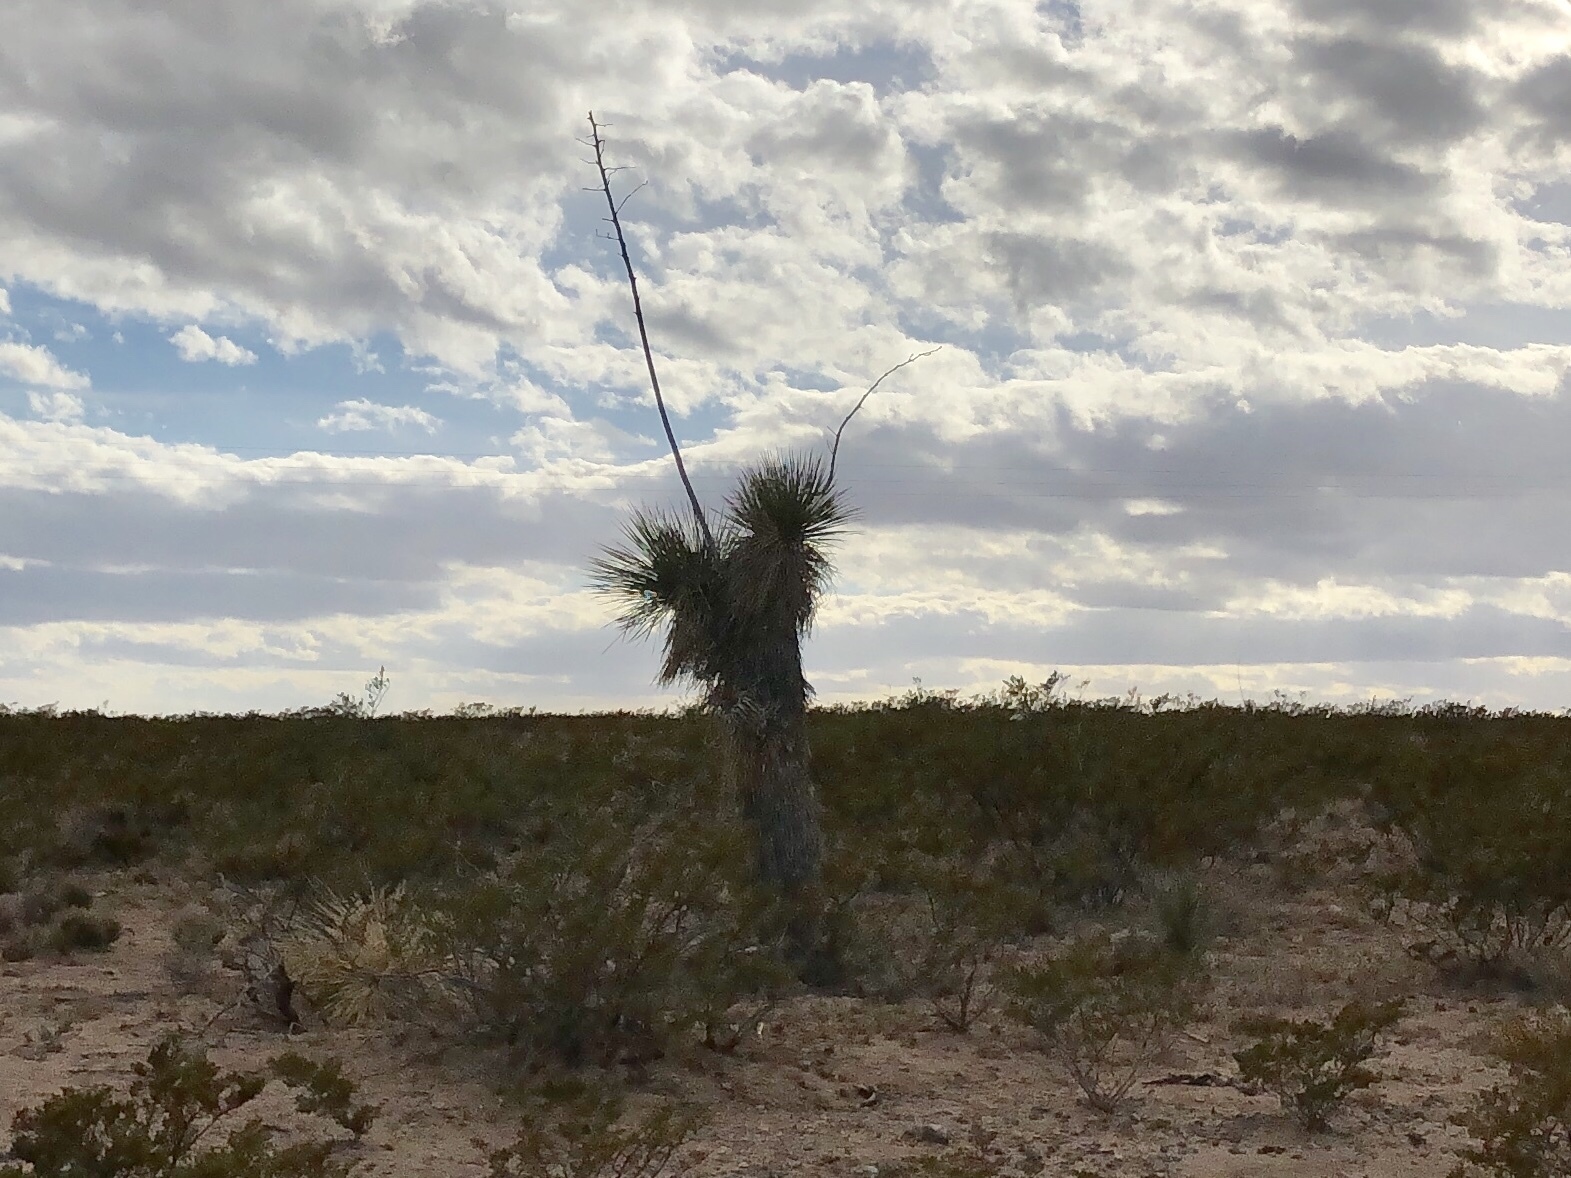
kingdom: Plantae
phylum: Tracheophyta
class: Liliopsida
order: Asparagales
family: Asparagaceae
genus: Yucca
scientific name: Yucca elata
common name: Palmella
